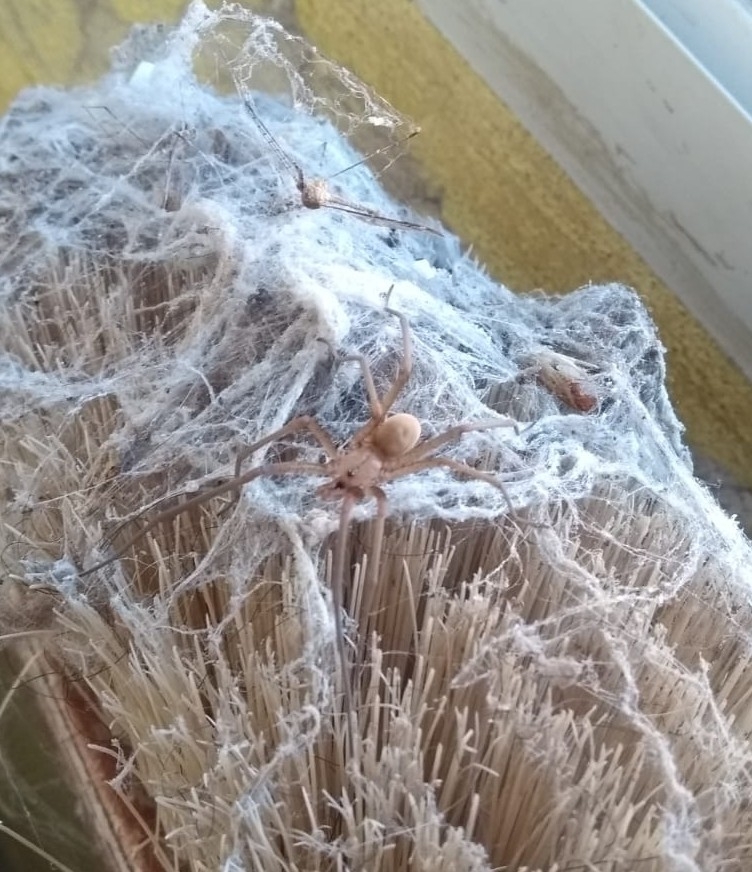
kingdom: Animalia
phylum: Arthropoda
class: Arachnida
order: Araneae
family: Filistatidae
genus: Kukulcania
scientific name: Kukulcania hibernalis
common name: Crevice weaver
